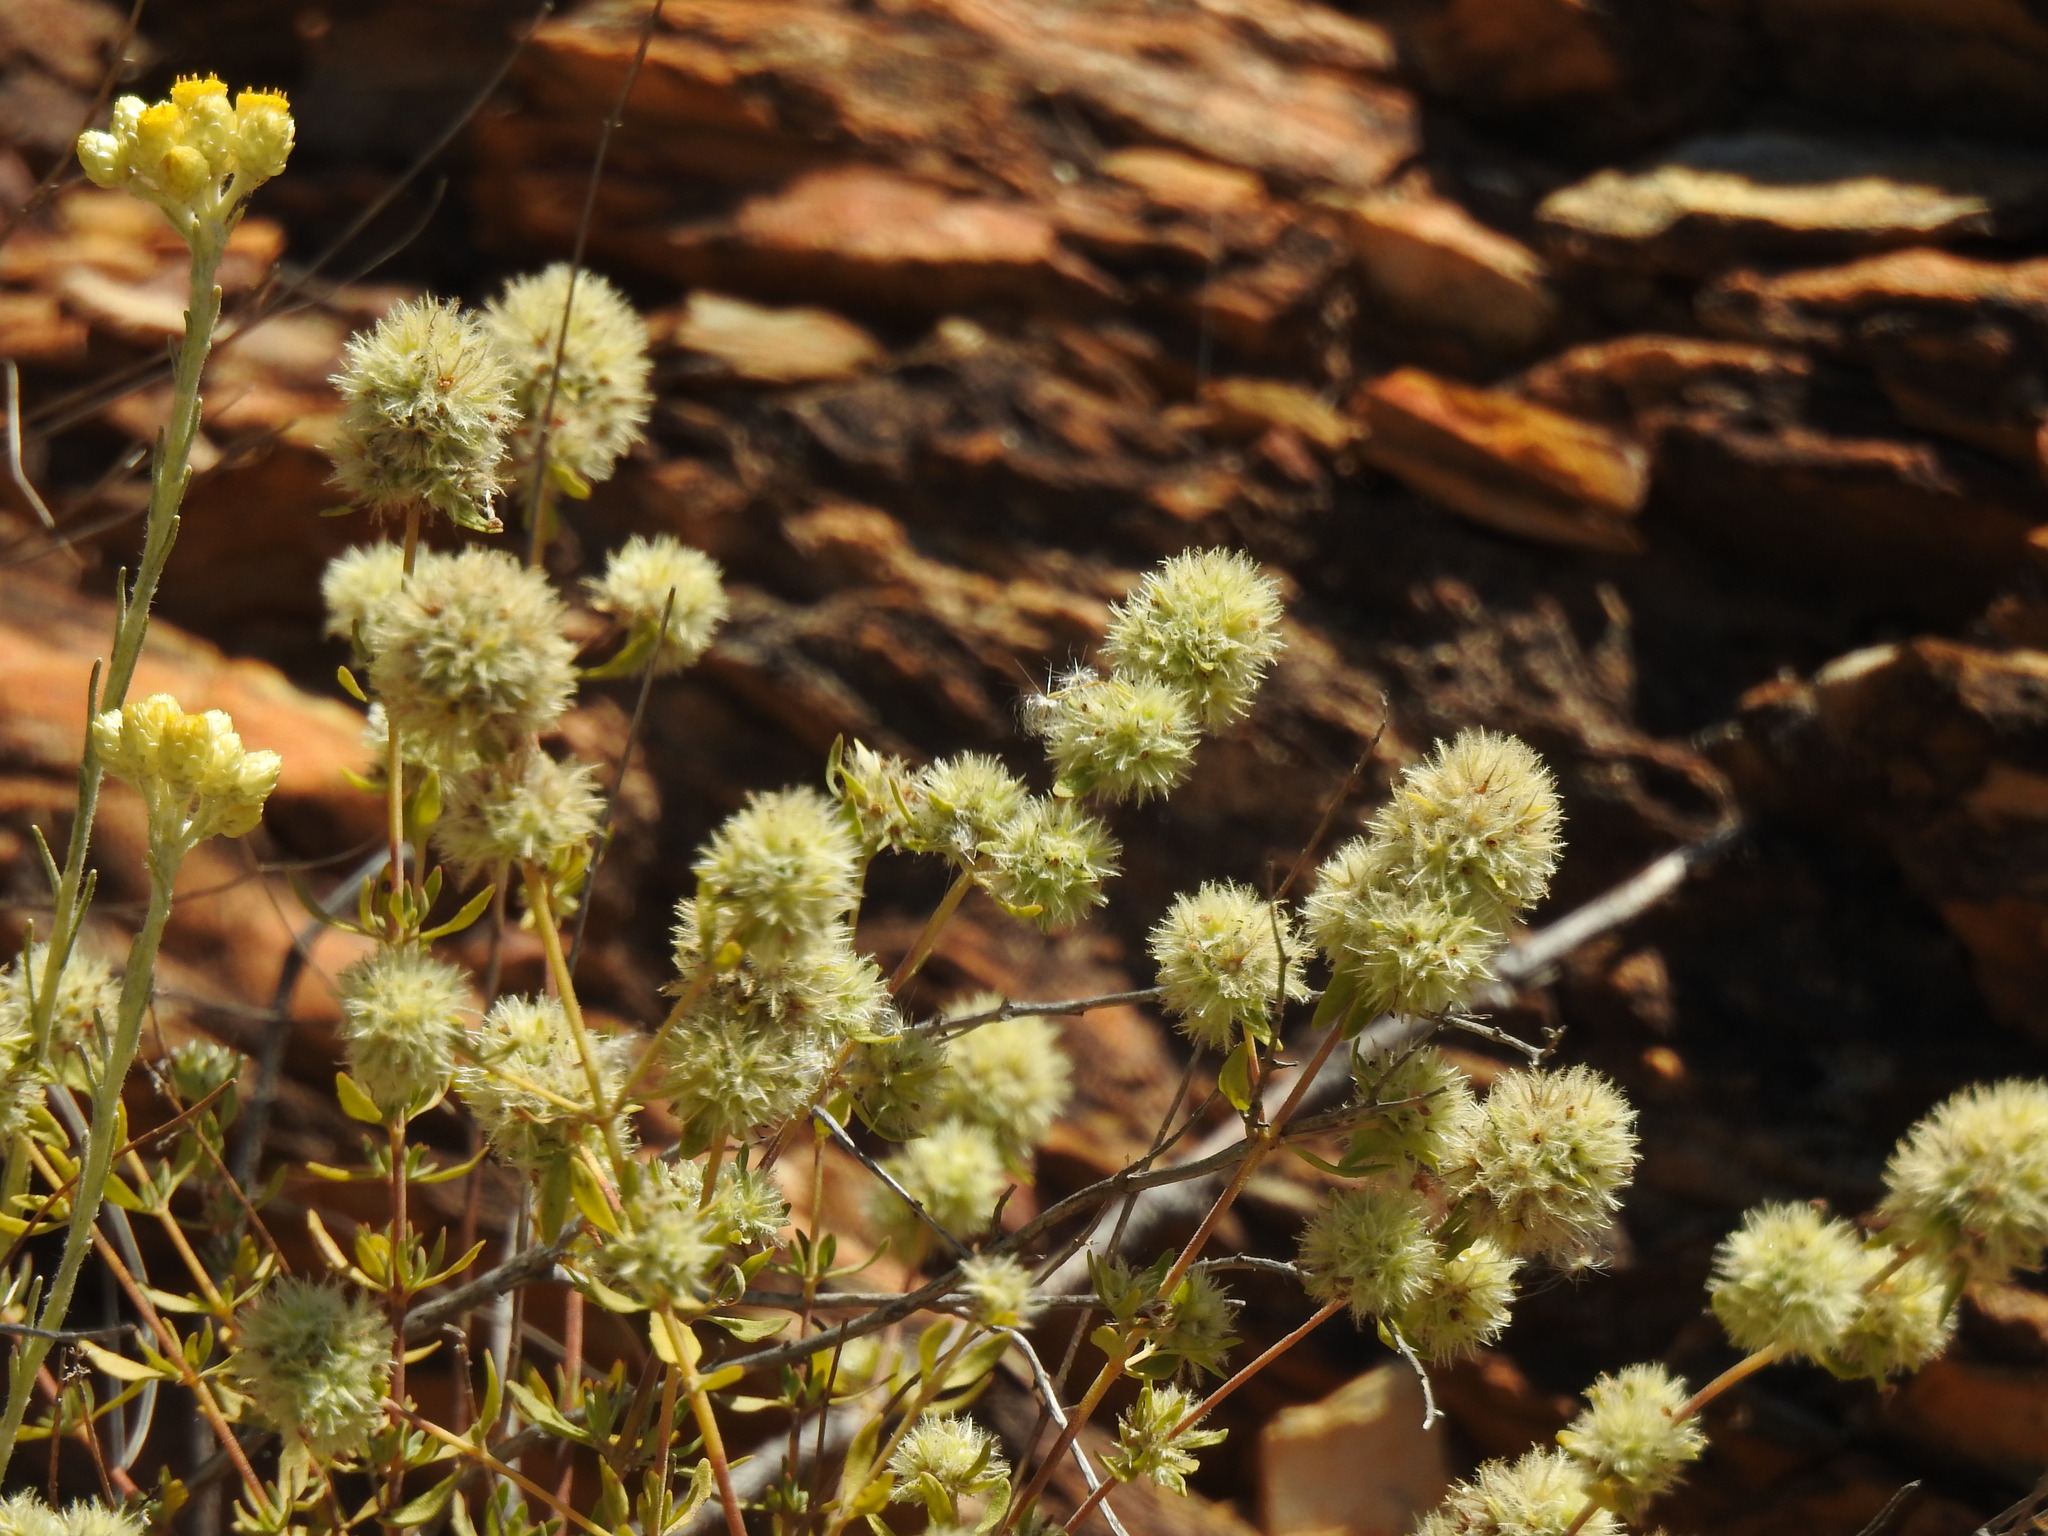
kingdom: Plantae
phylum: Tracheophyta
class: Magnoliopsida
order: Lamiales
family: Lamiaceae
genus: Thymus
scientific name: Thymus mastichina
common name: Mastic thyme
